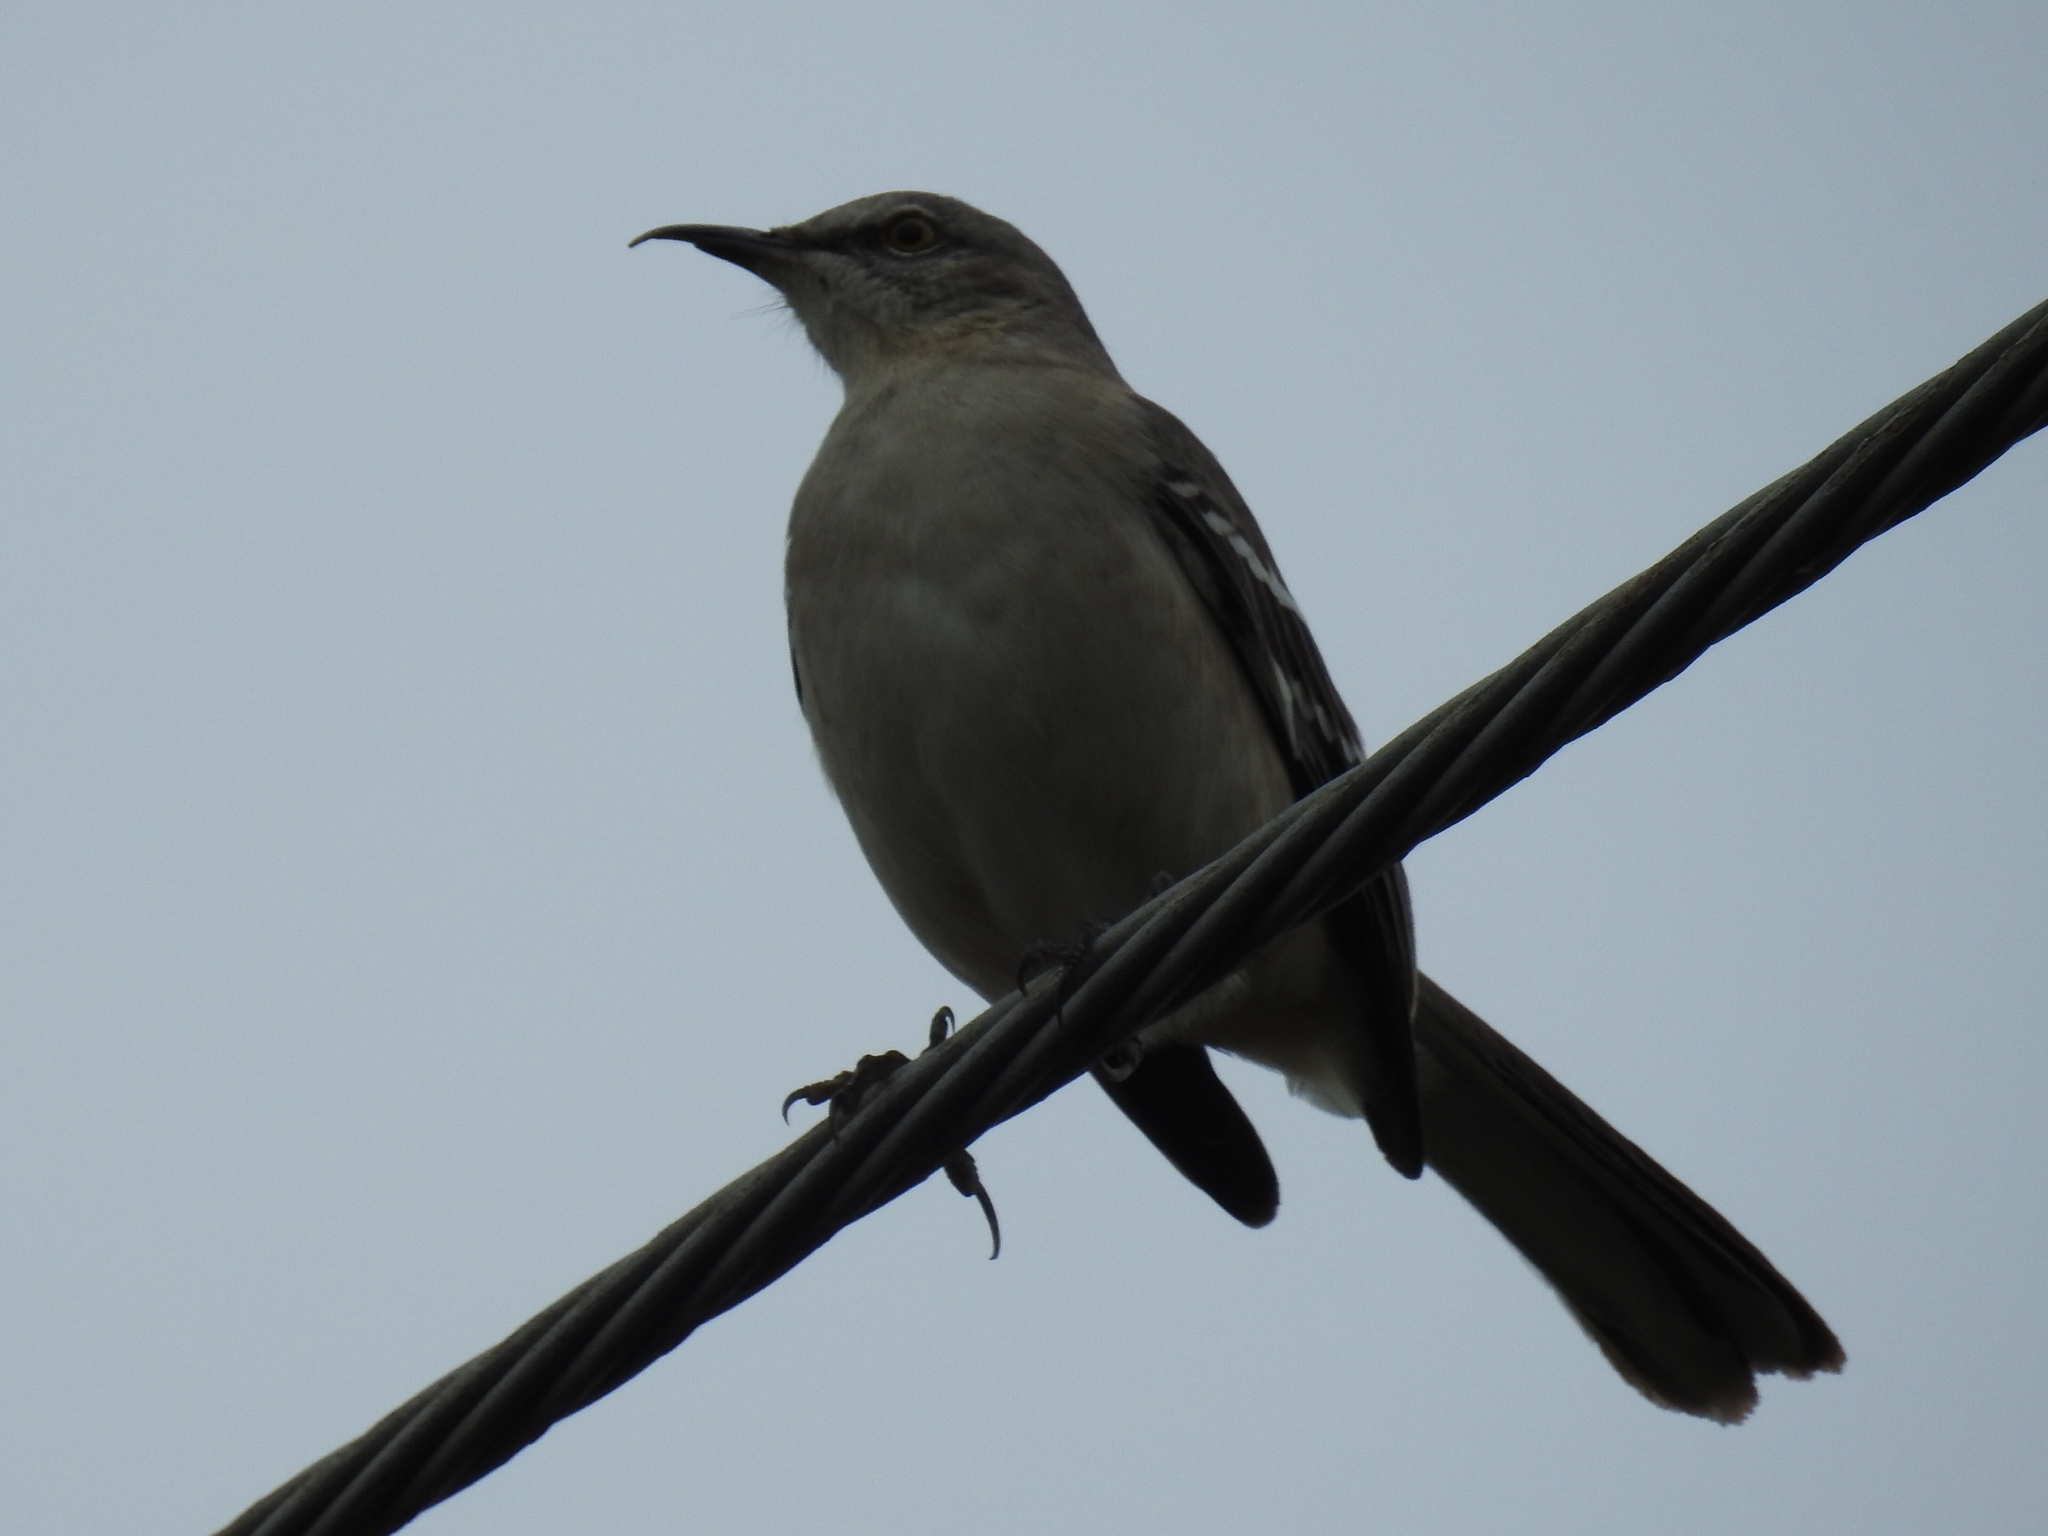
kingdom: Animalia
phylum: Chordata
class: Aves
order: Passeriformes
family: Mimidae
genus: Mimus
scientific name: Mimus polyglottos
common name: Northern mockingbird
